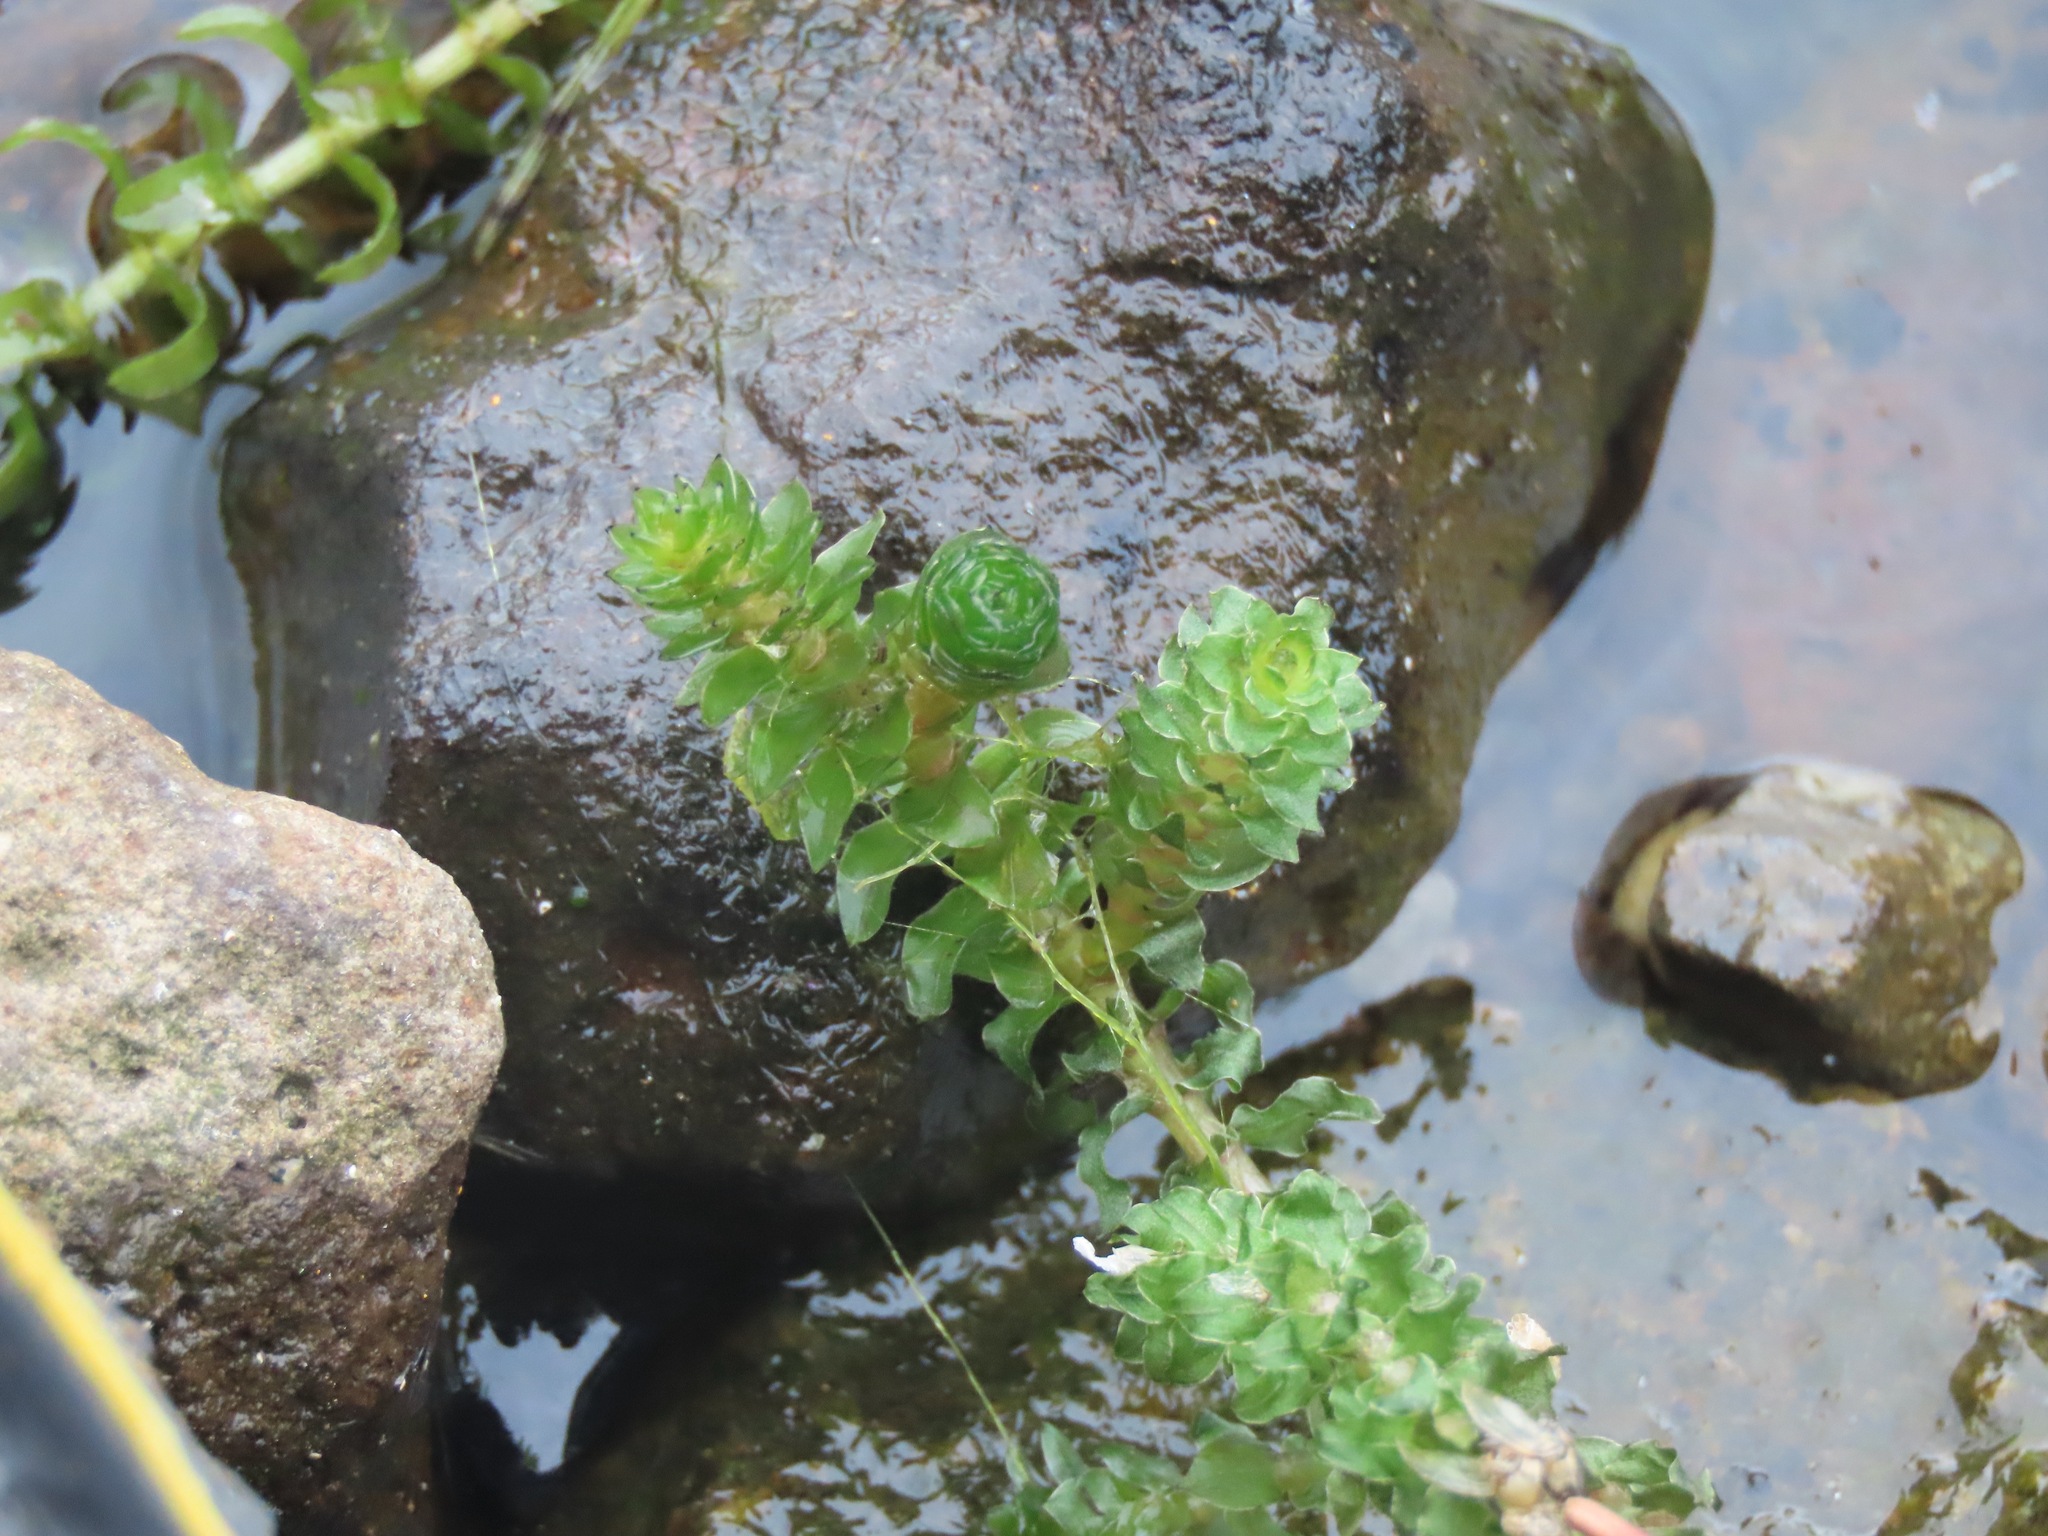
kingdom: Plantae
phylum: Tracheophyta
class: Liliopsida
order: Alismatales
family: Hydrocharitaceae
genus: Elodea
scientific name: Elodea canadensis
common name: Canadian waterweed
